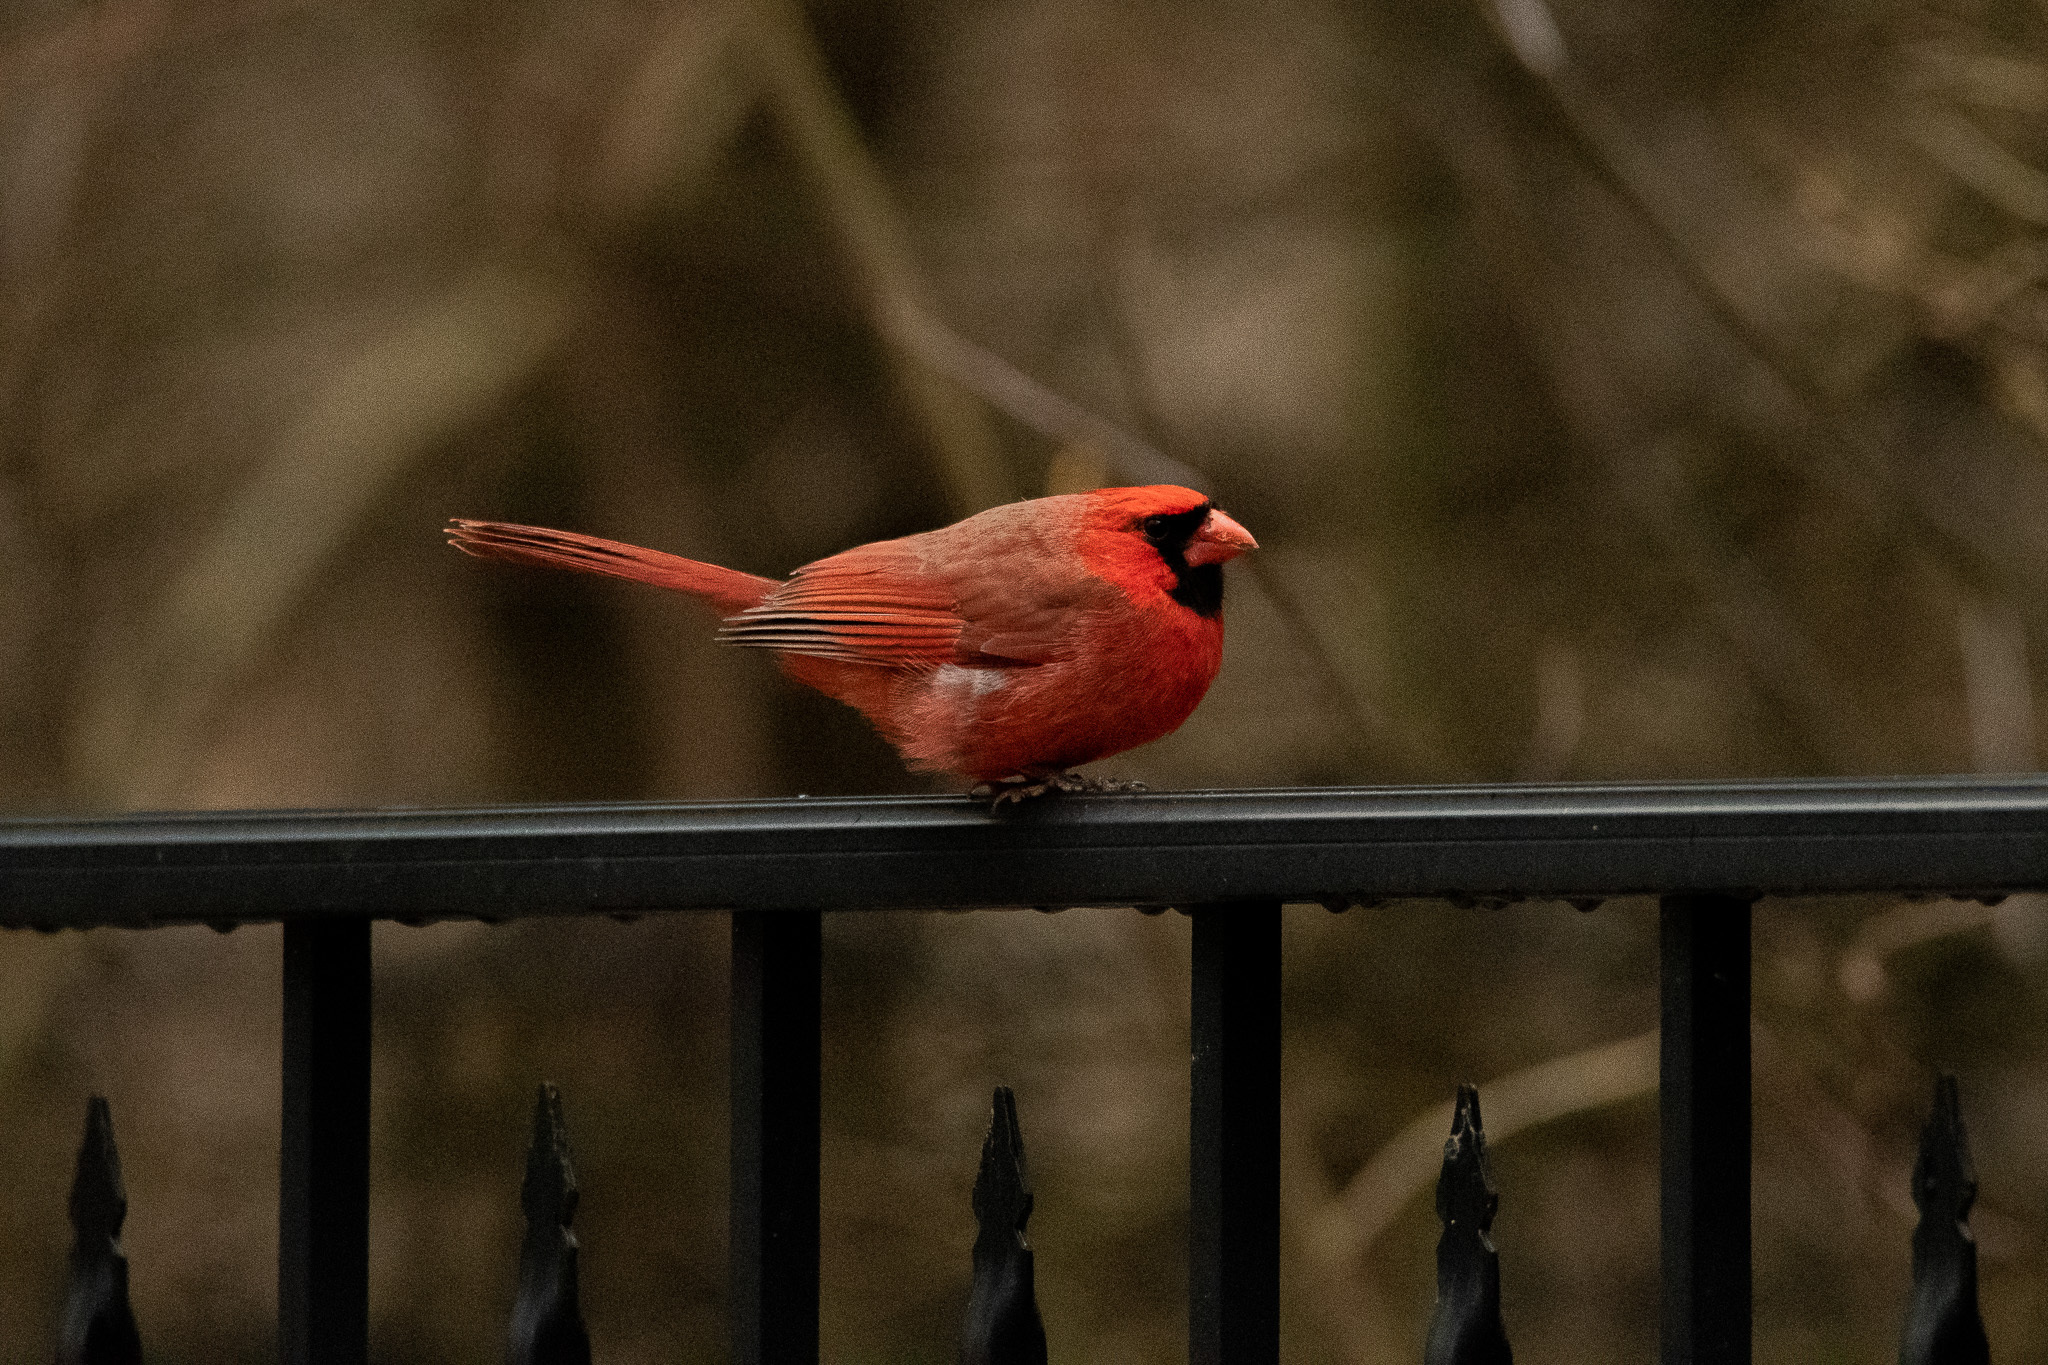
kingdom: Animalia
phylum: Chordata
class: Aves
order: Passeriformes
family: Cardinalidae
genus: Cardinalis
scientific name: Cardinalis cardinalis
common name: Northern cardinal
